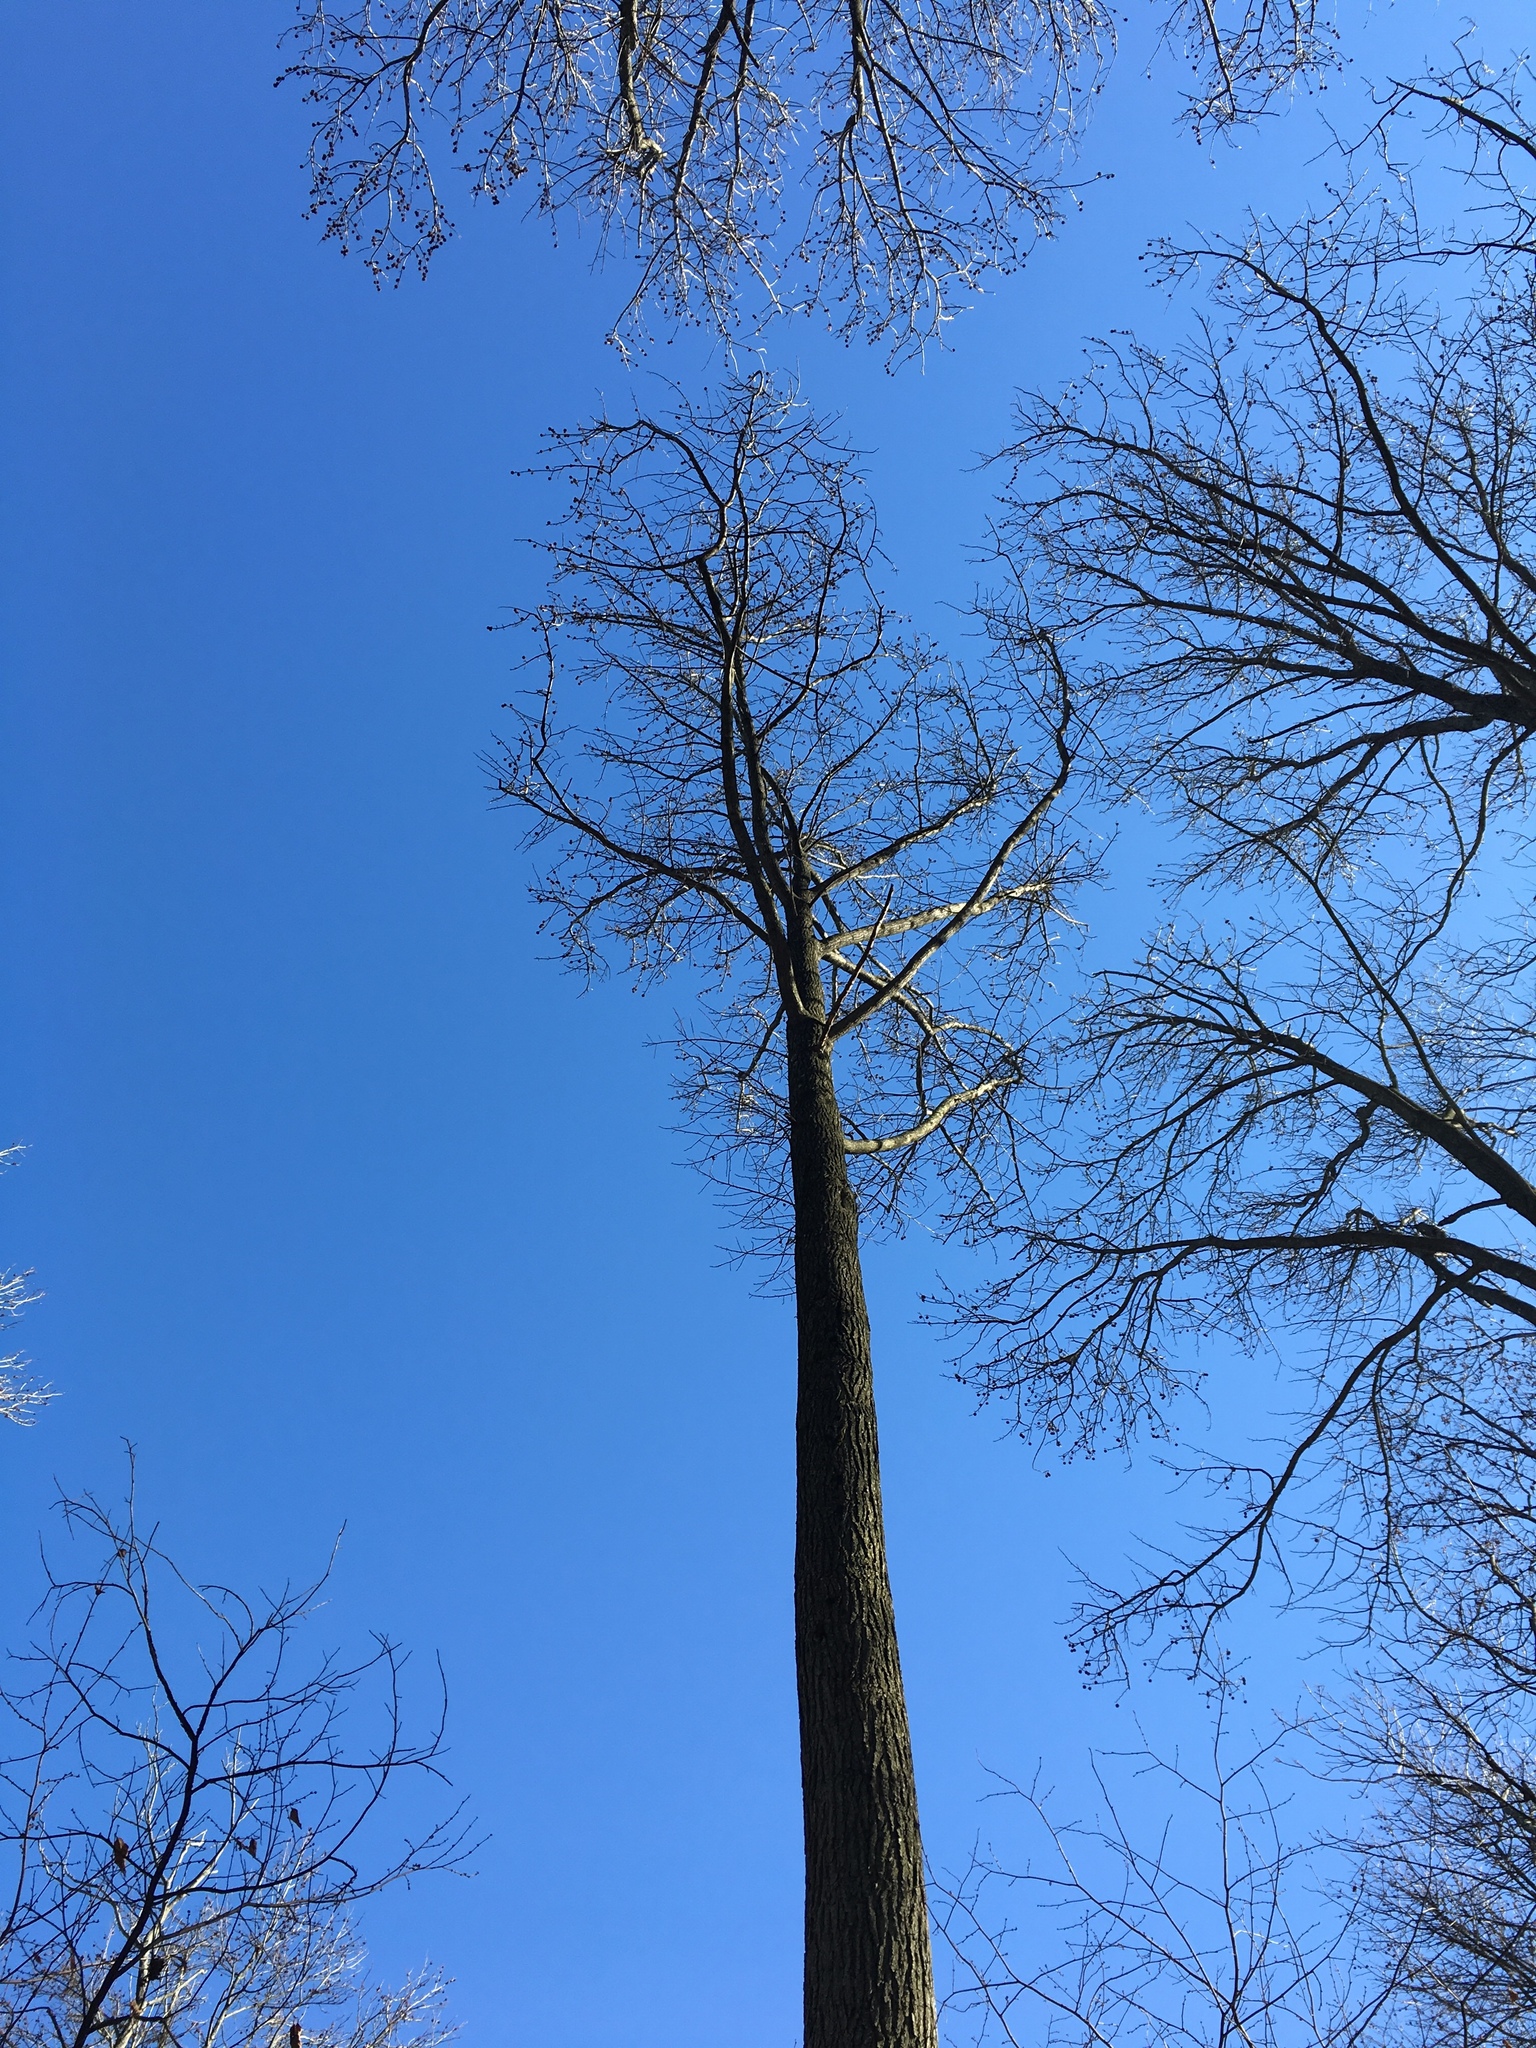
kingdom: Plantae
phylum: Tracheophyta
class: Magnoliopsida
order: Saxifragales
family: Altingiaceae
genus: Liquidambar
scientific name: Liquidambar styraciflua
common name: Sweet gum
